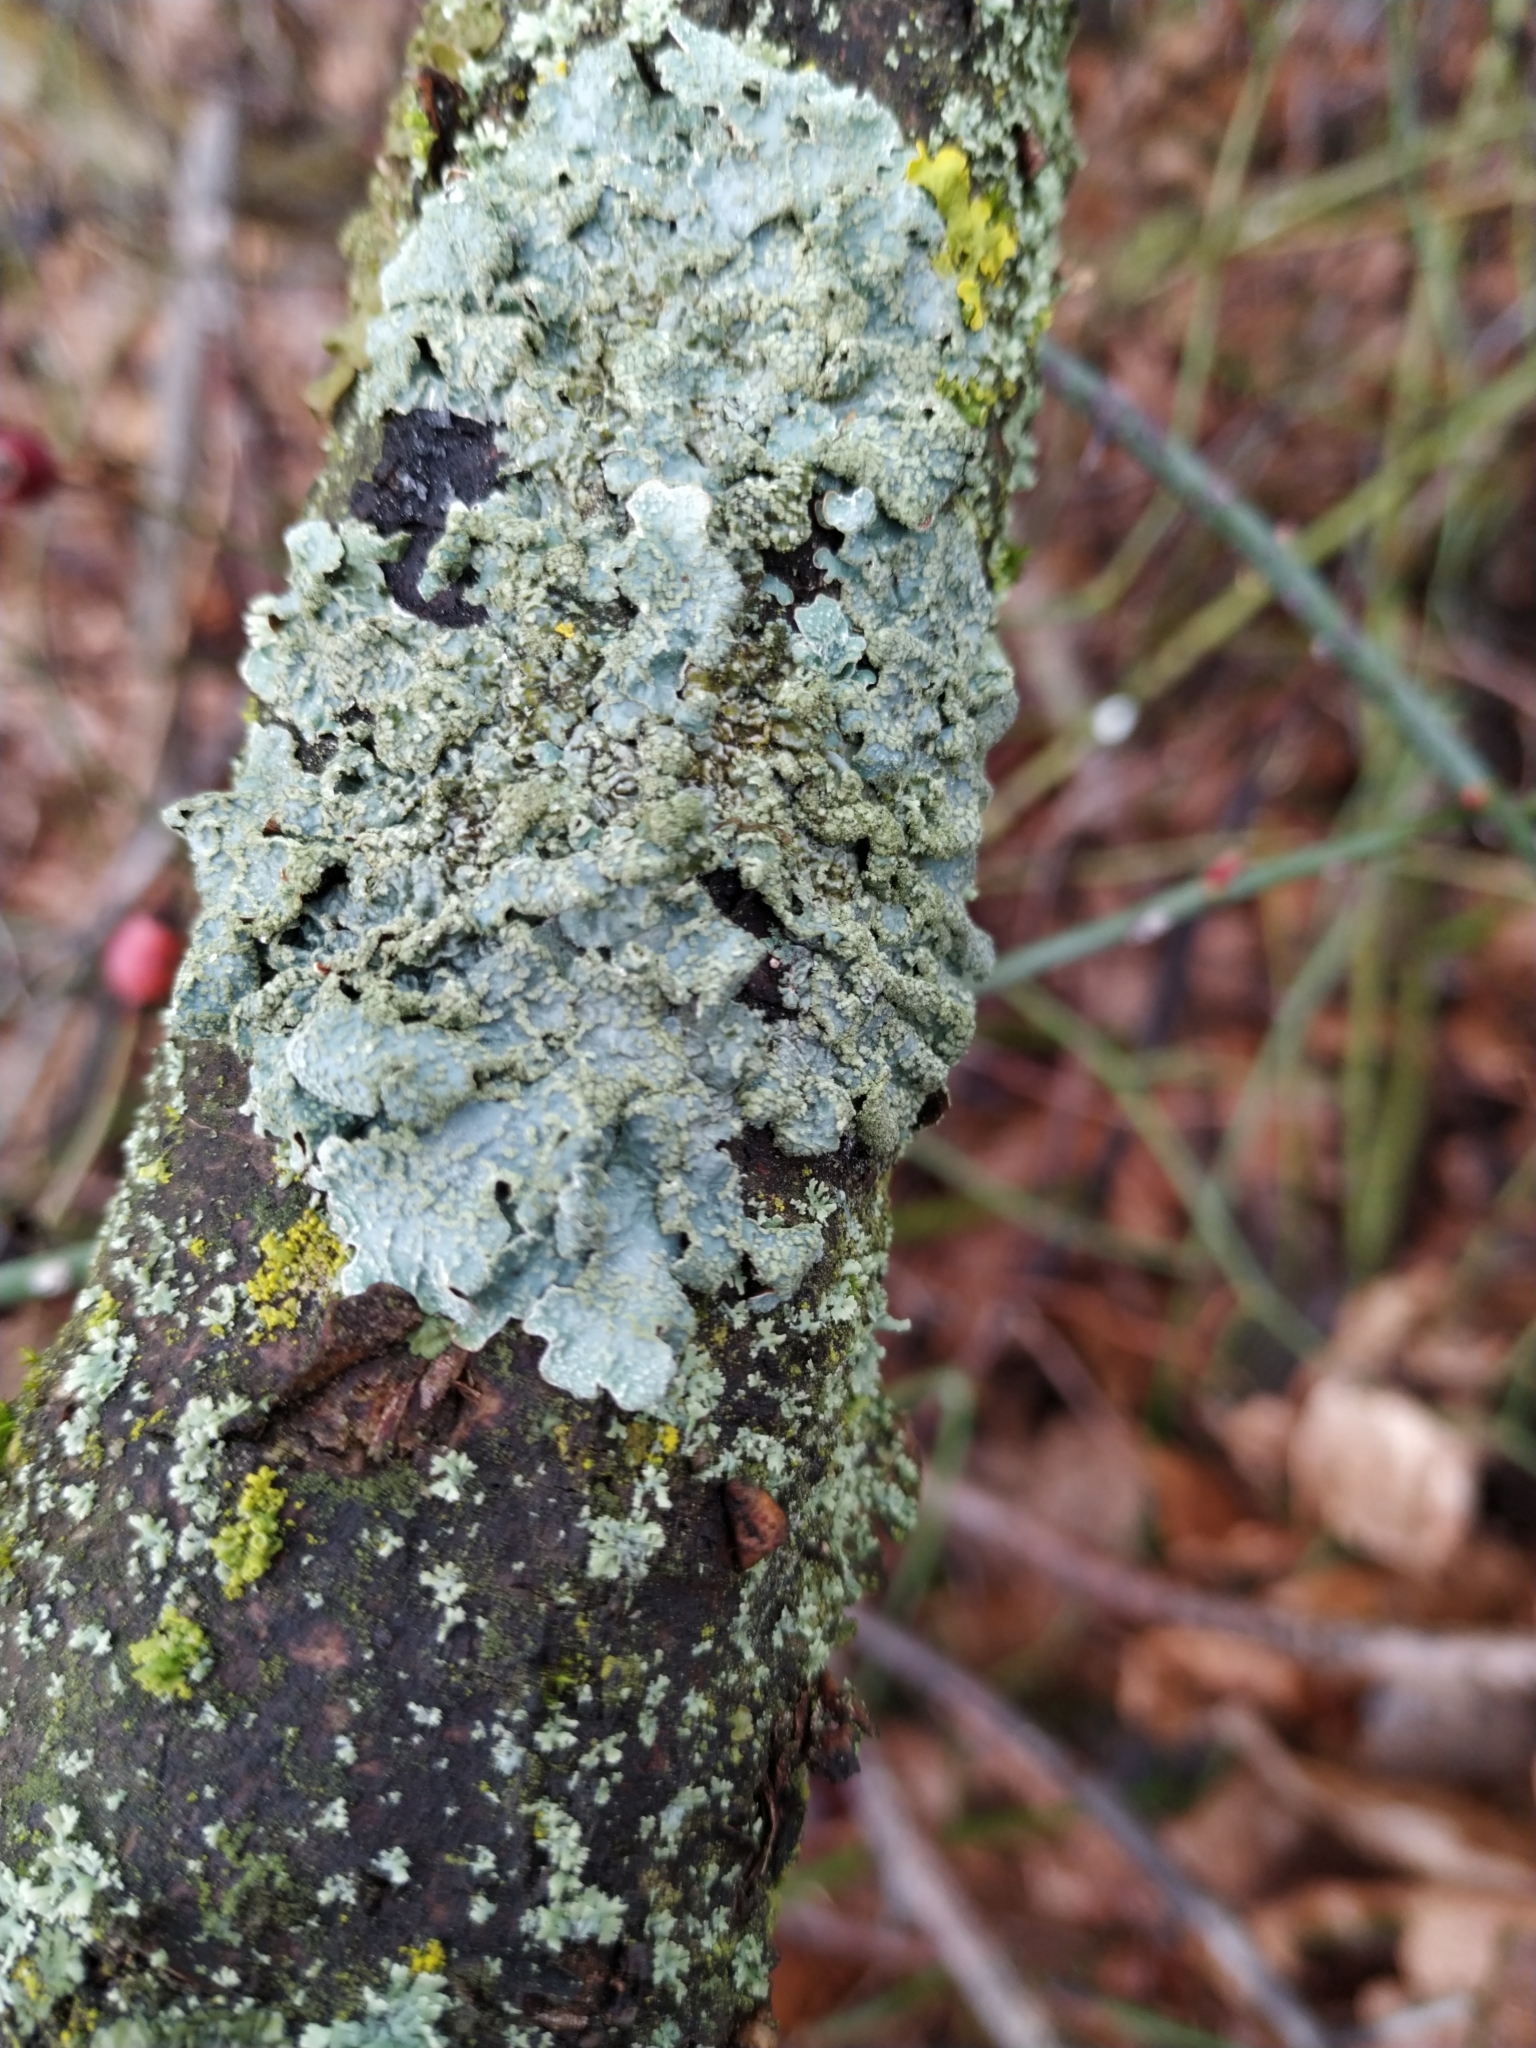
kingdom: Fungi
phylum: Ascomycota
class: Lecanoromycetes
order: Lecanorales
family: Parmeliaceae
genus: Parmelia
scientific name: Parmelia sulcata
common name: Netted shield lichen
